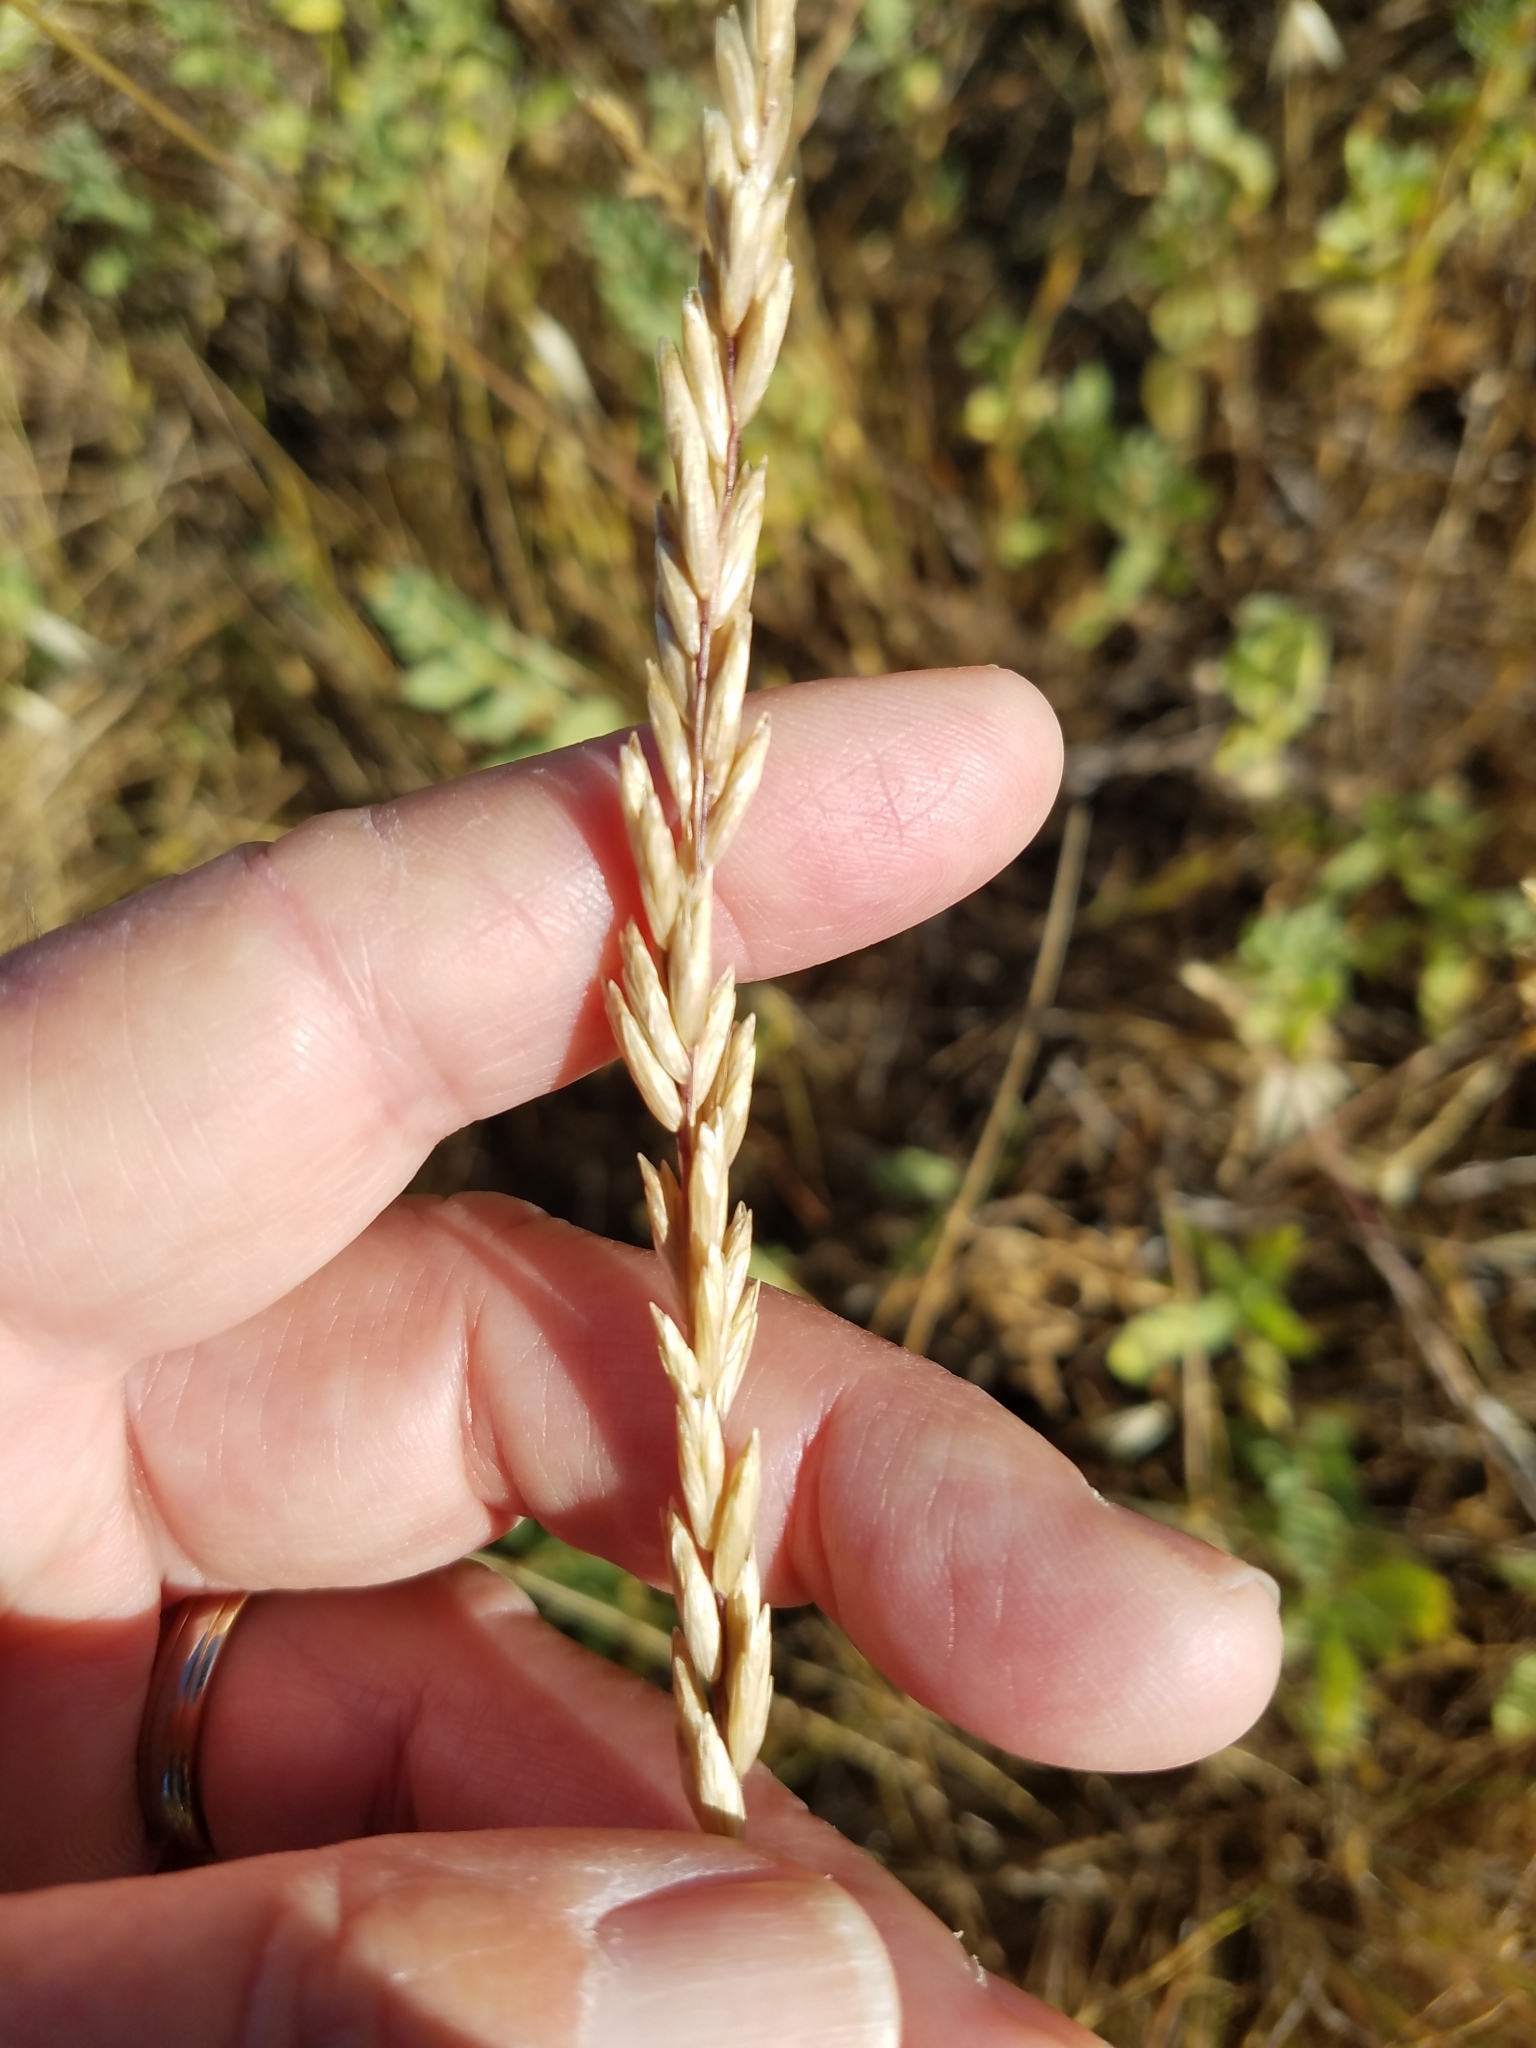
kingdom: Plantae
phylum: Tracheophyta
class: Liliopsida
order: Poales
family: Poaceae
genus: Melica
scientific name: Melica californica
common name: California melic
